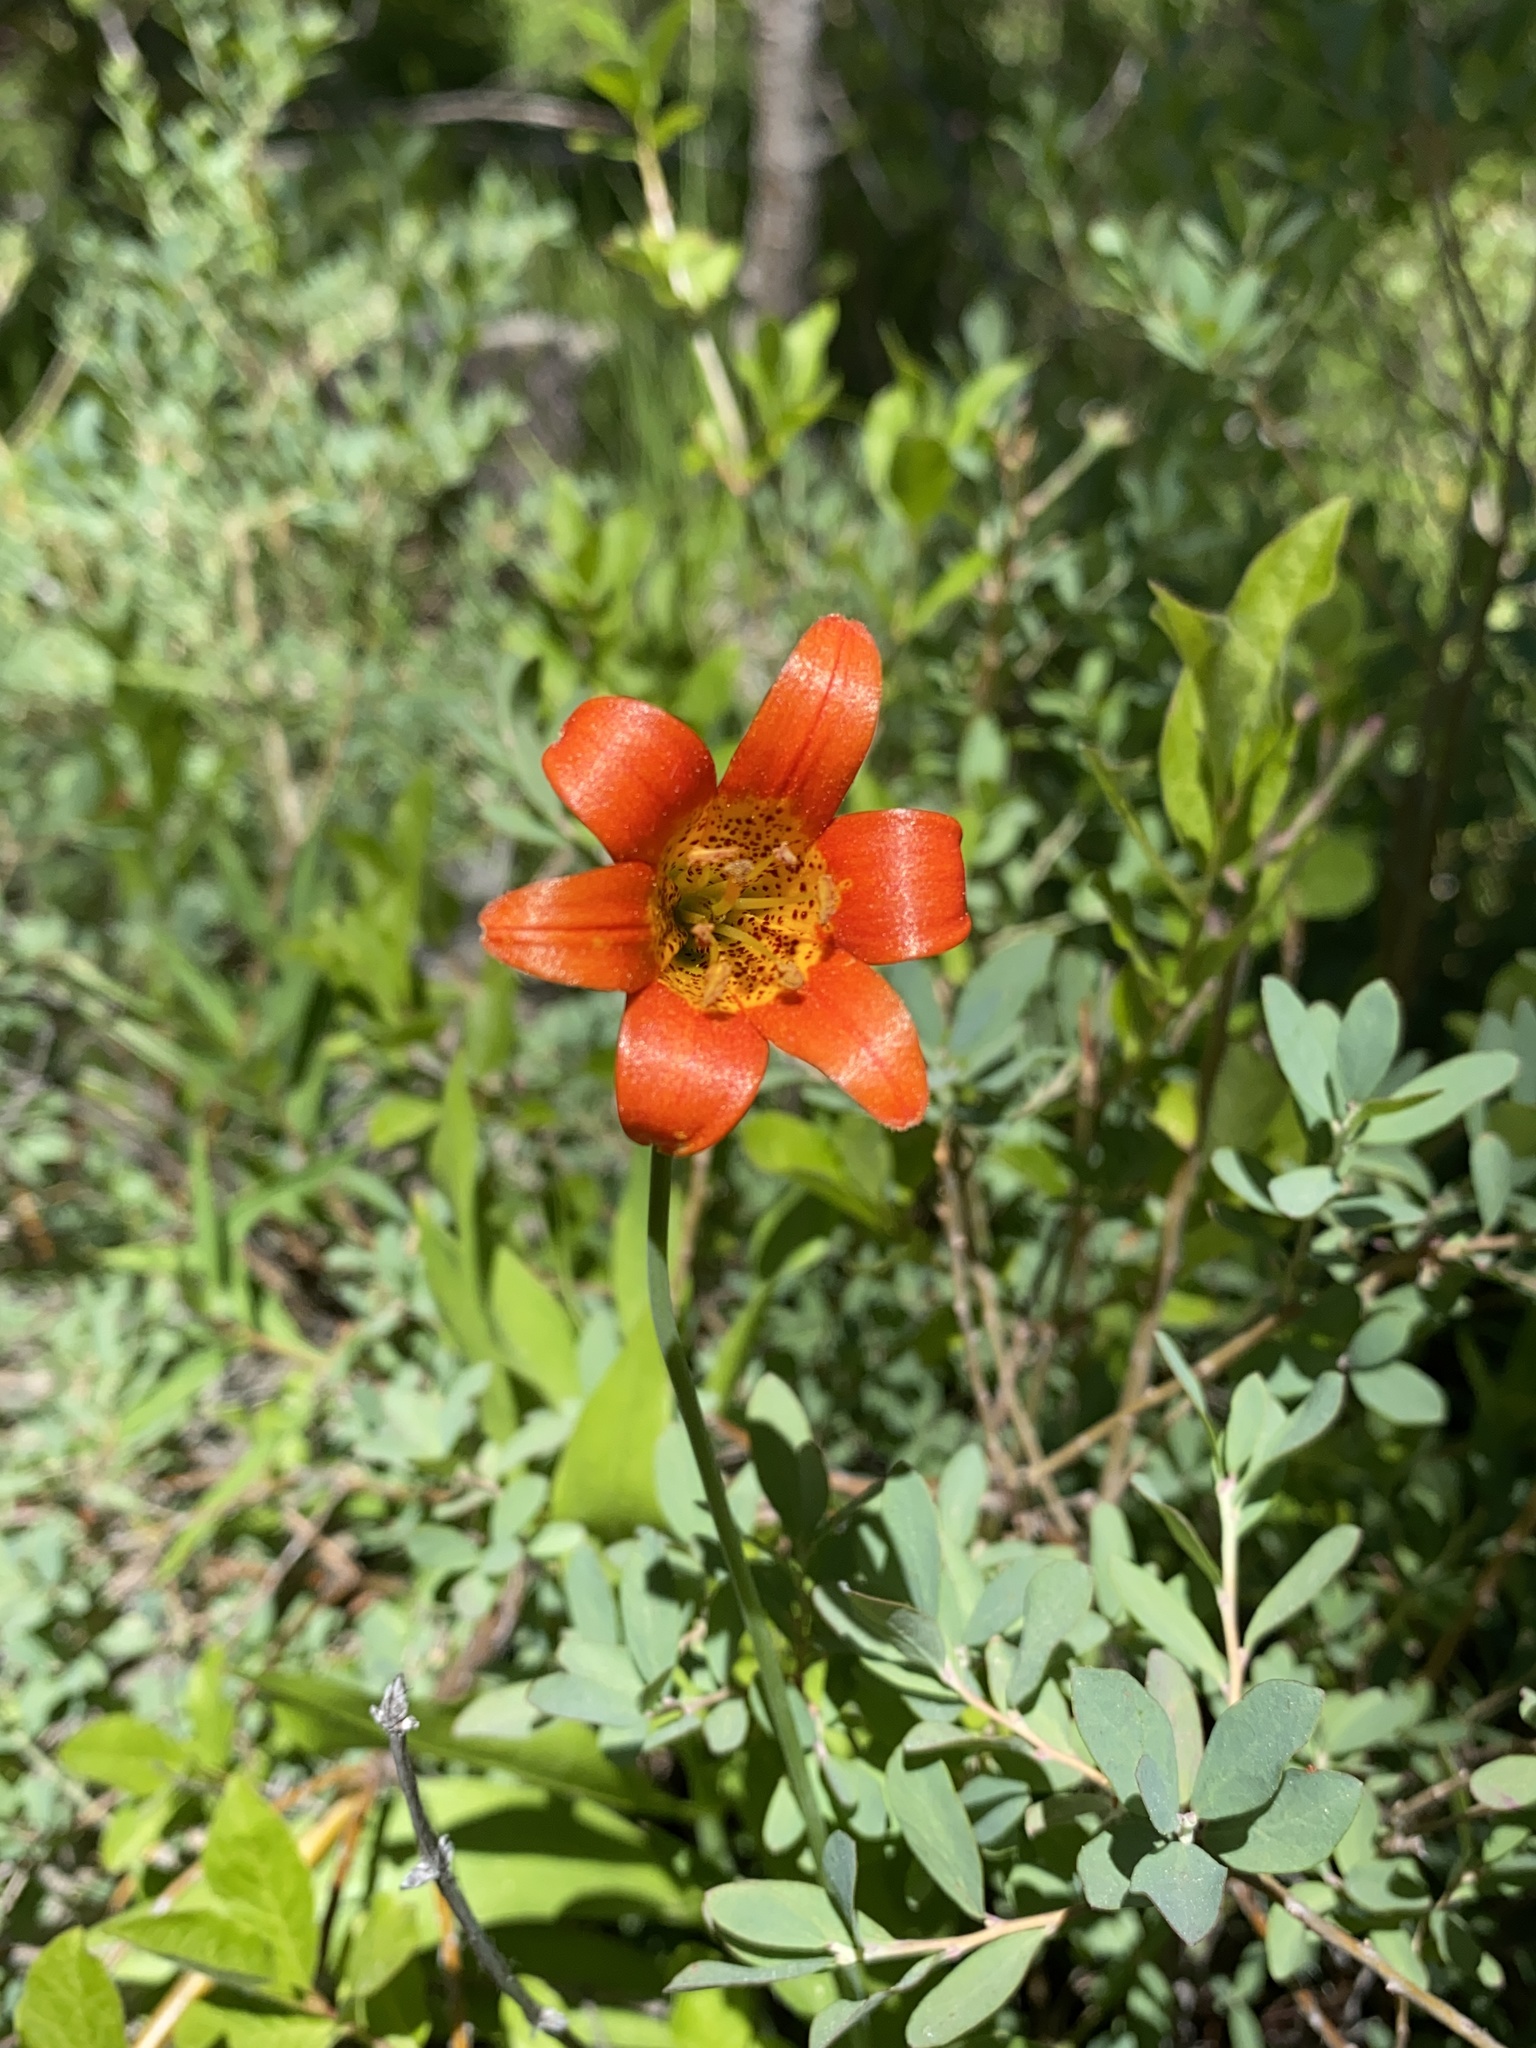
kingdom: Plantae
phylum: Tracheophyta
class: Liliopsida
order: Liliales
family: Liliaceae
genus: Lilium
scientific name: Lilium parvum
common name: Alpine lily
